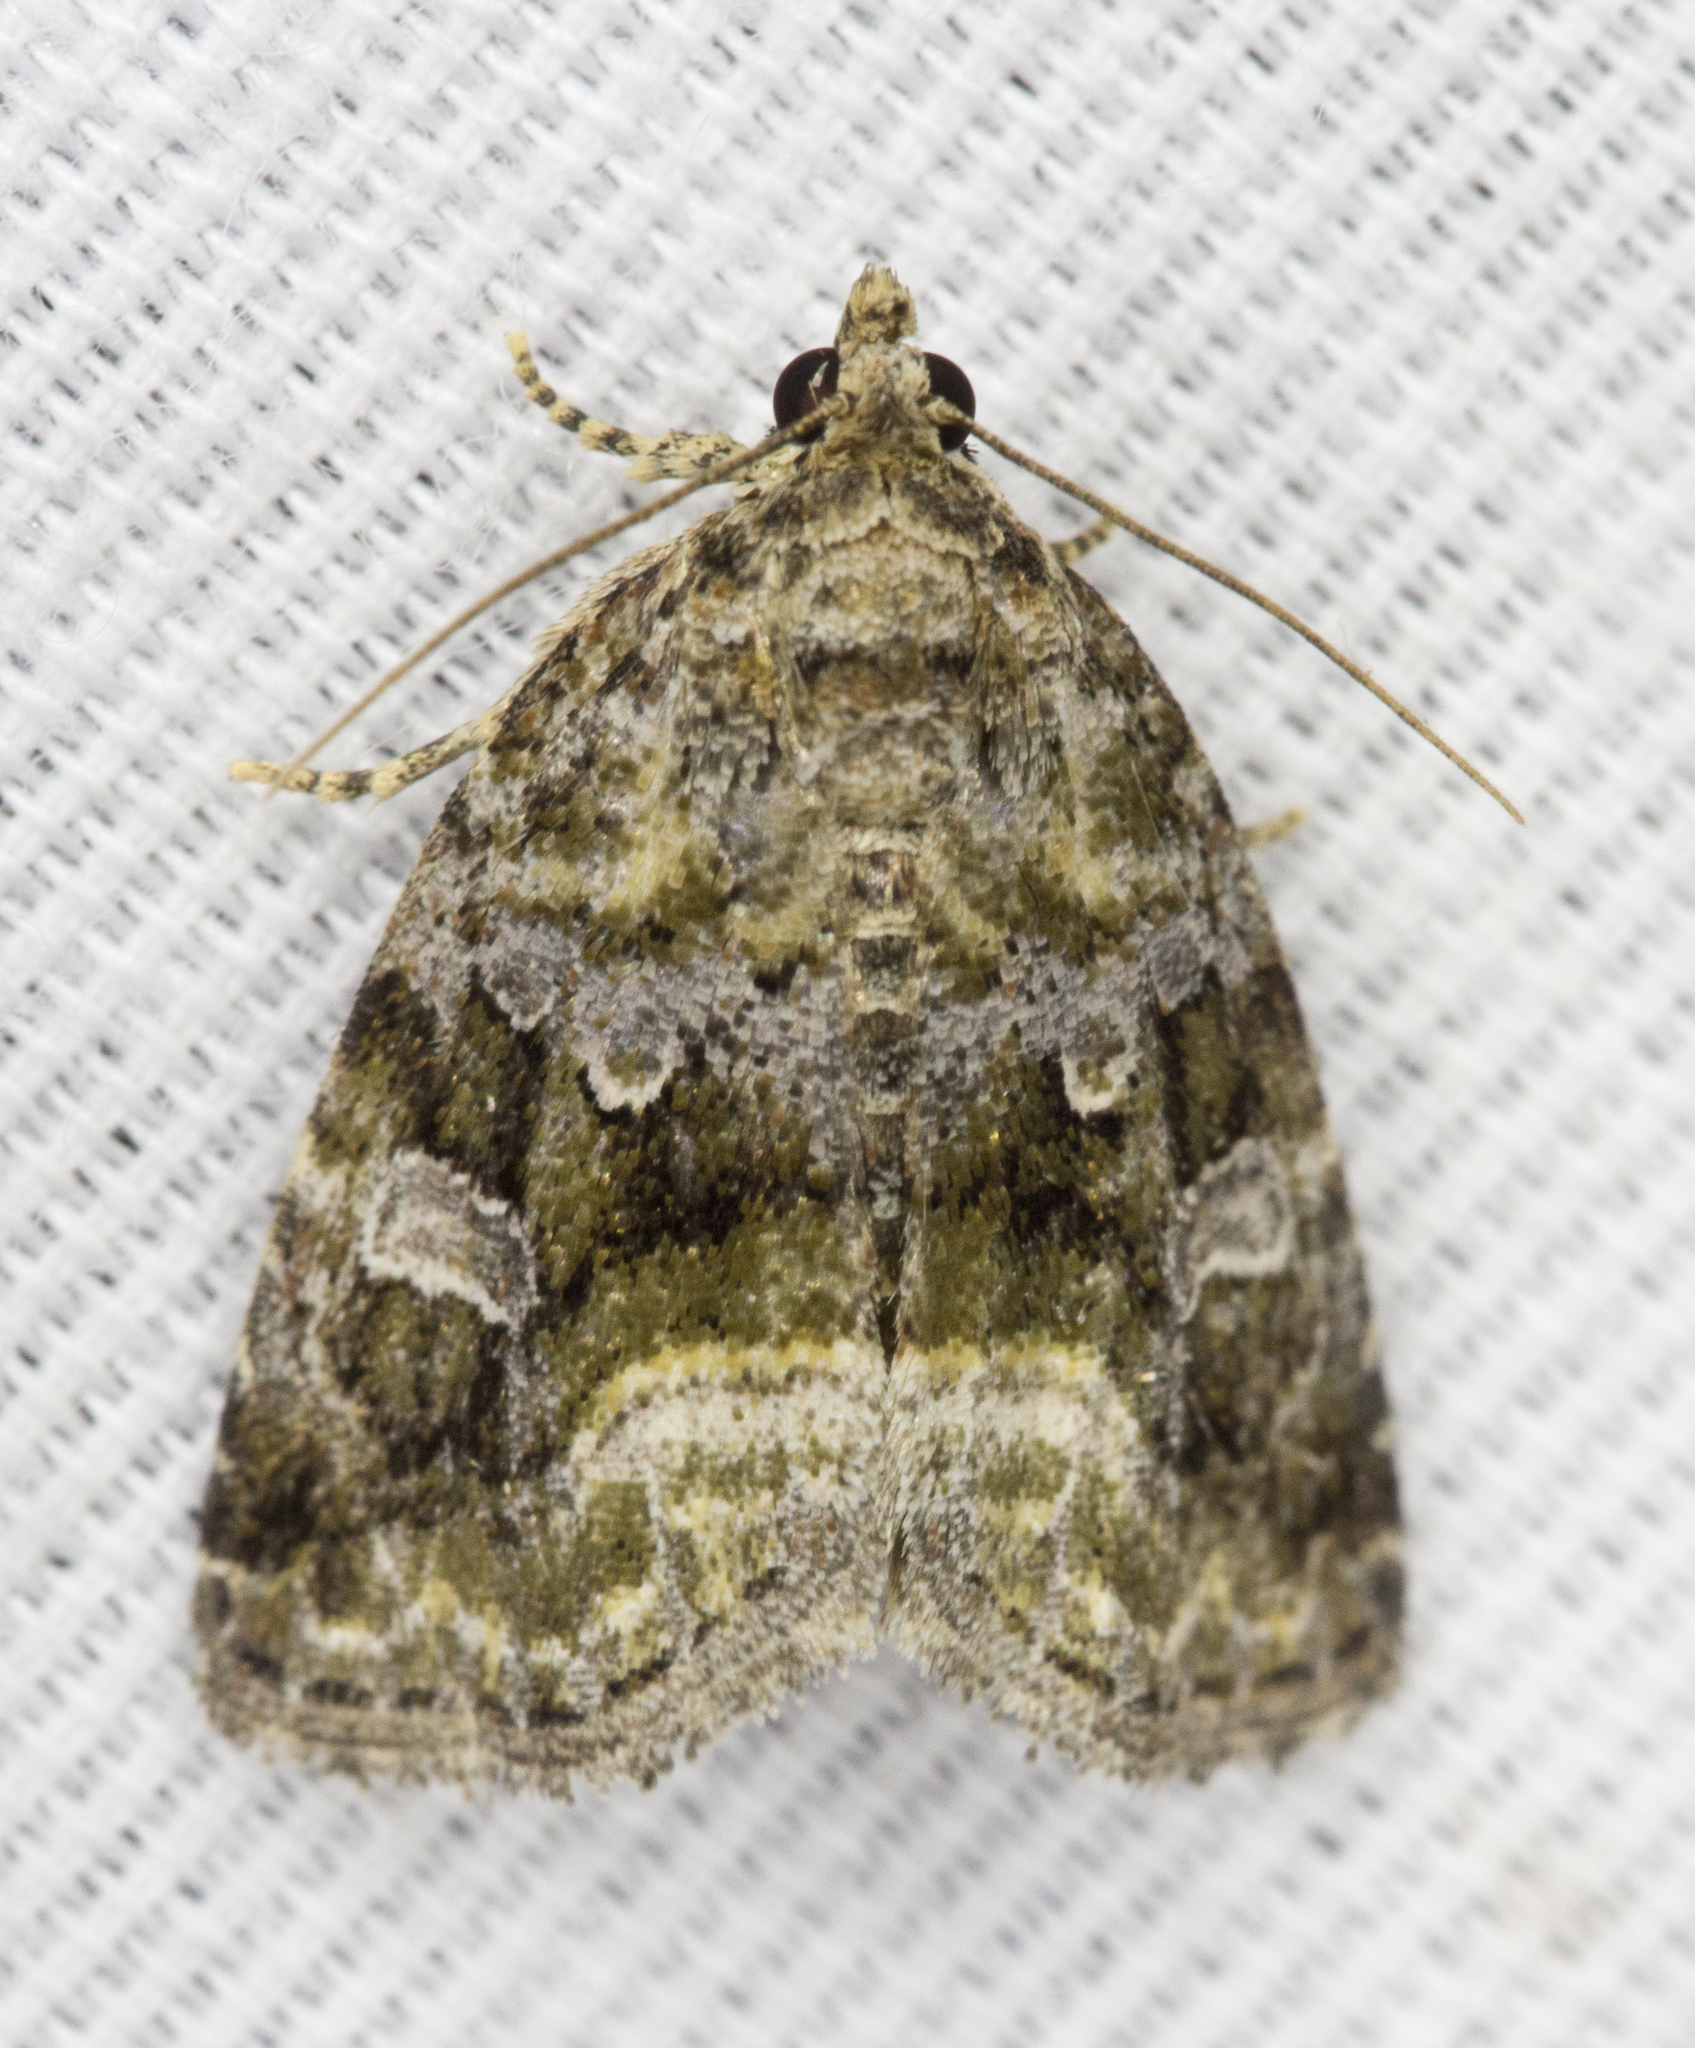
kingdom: Animalia
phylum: Arthropoda
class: Insecta
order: Lepidoptera
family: Noctuidae
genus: Protodeltote
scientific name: Protodeltote muscosula
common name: Large mossy glyph
